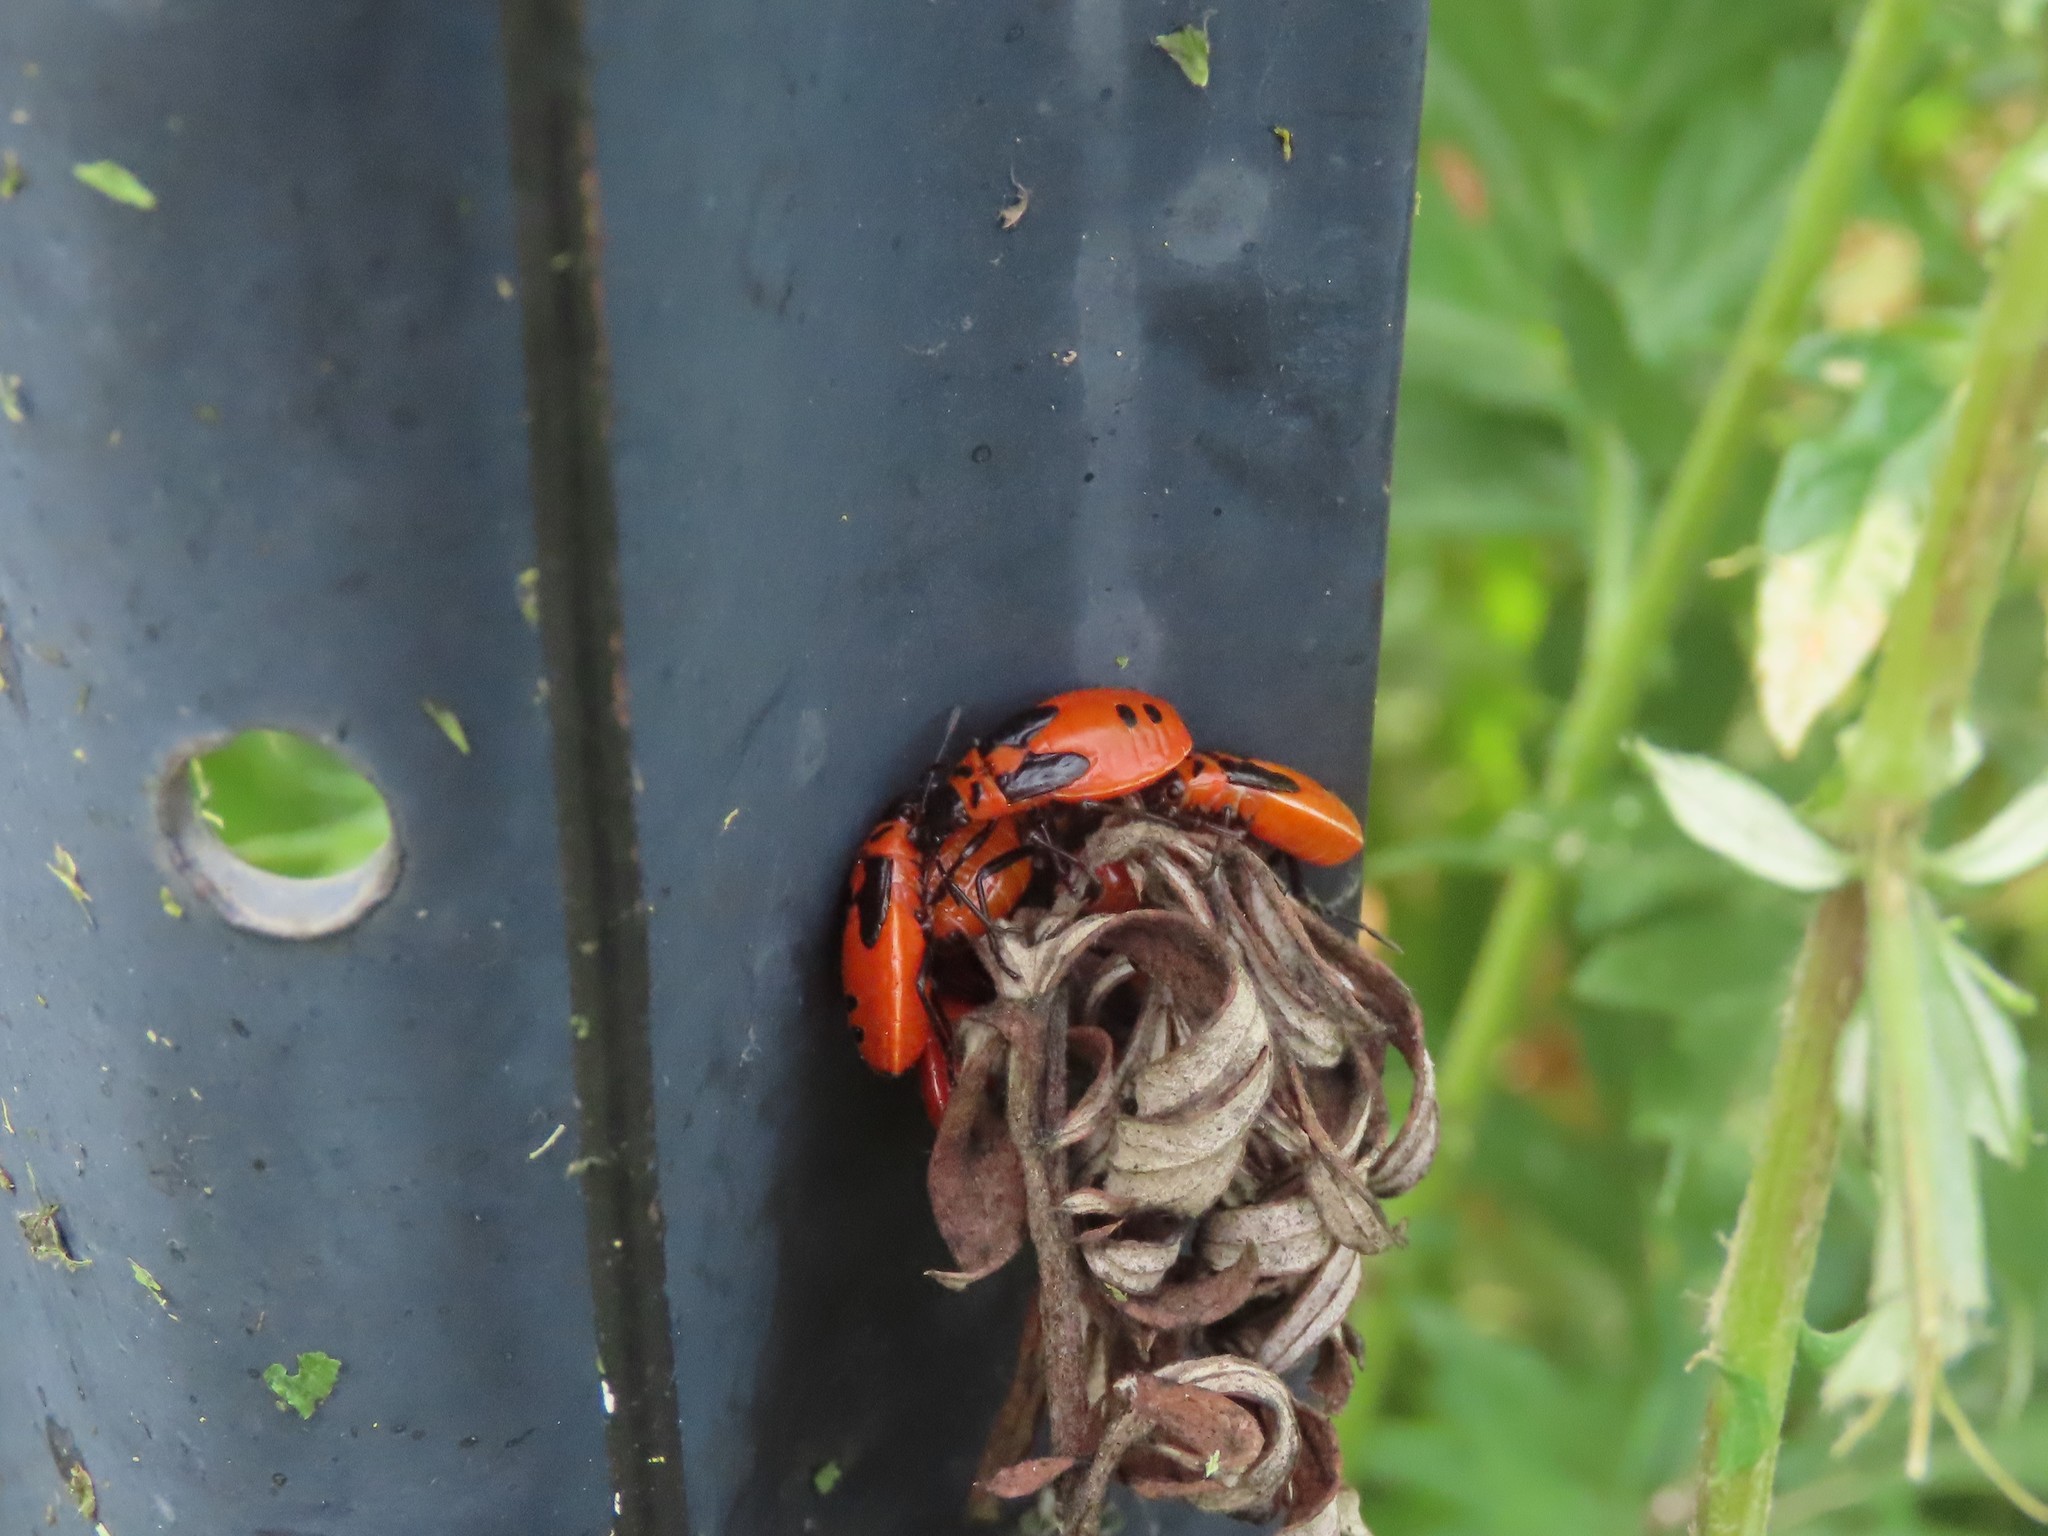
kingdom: Animalia
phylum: Arthropoda
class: Insecta
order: Hemiptera
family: Lygaeidae
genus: Lygaeus
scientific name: Lygaeus turcicus
